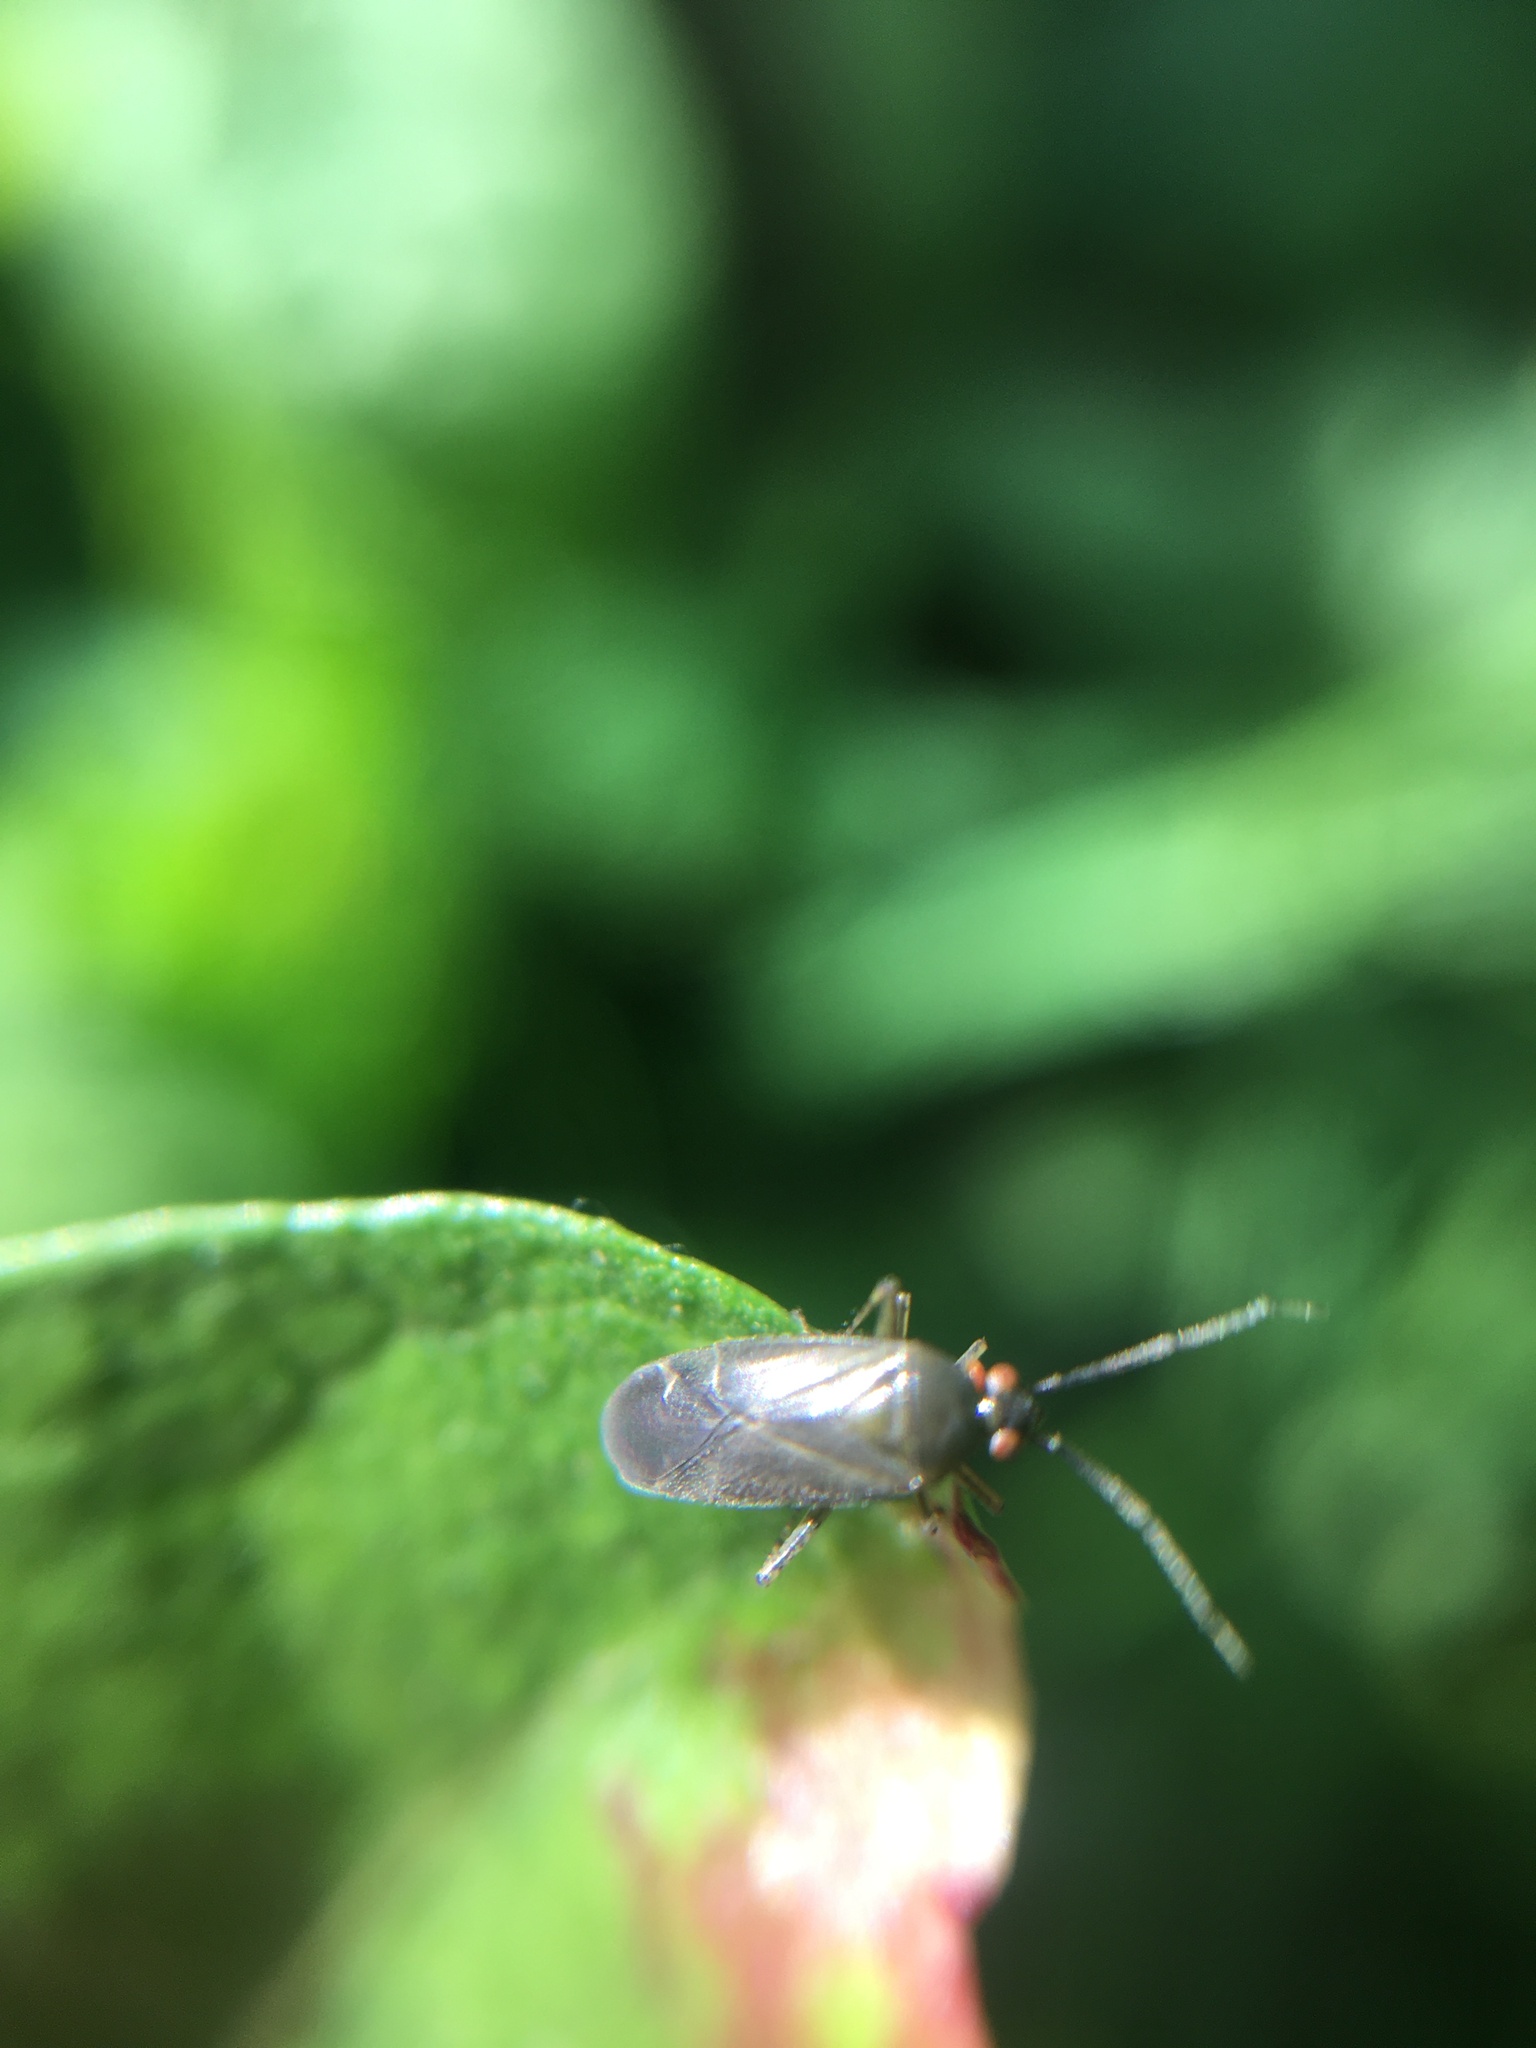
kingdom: Animalia
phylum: Arthropoda
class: Insecta
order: Hemiptera
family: Miridae
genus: Plagiognathus
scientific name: Plagiognathus arbustorum
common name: Plant bug
